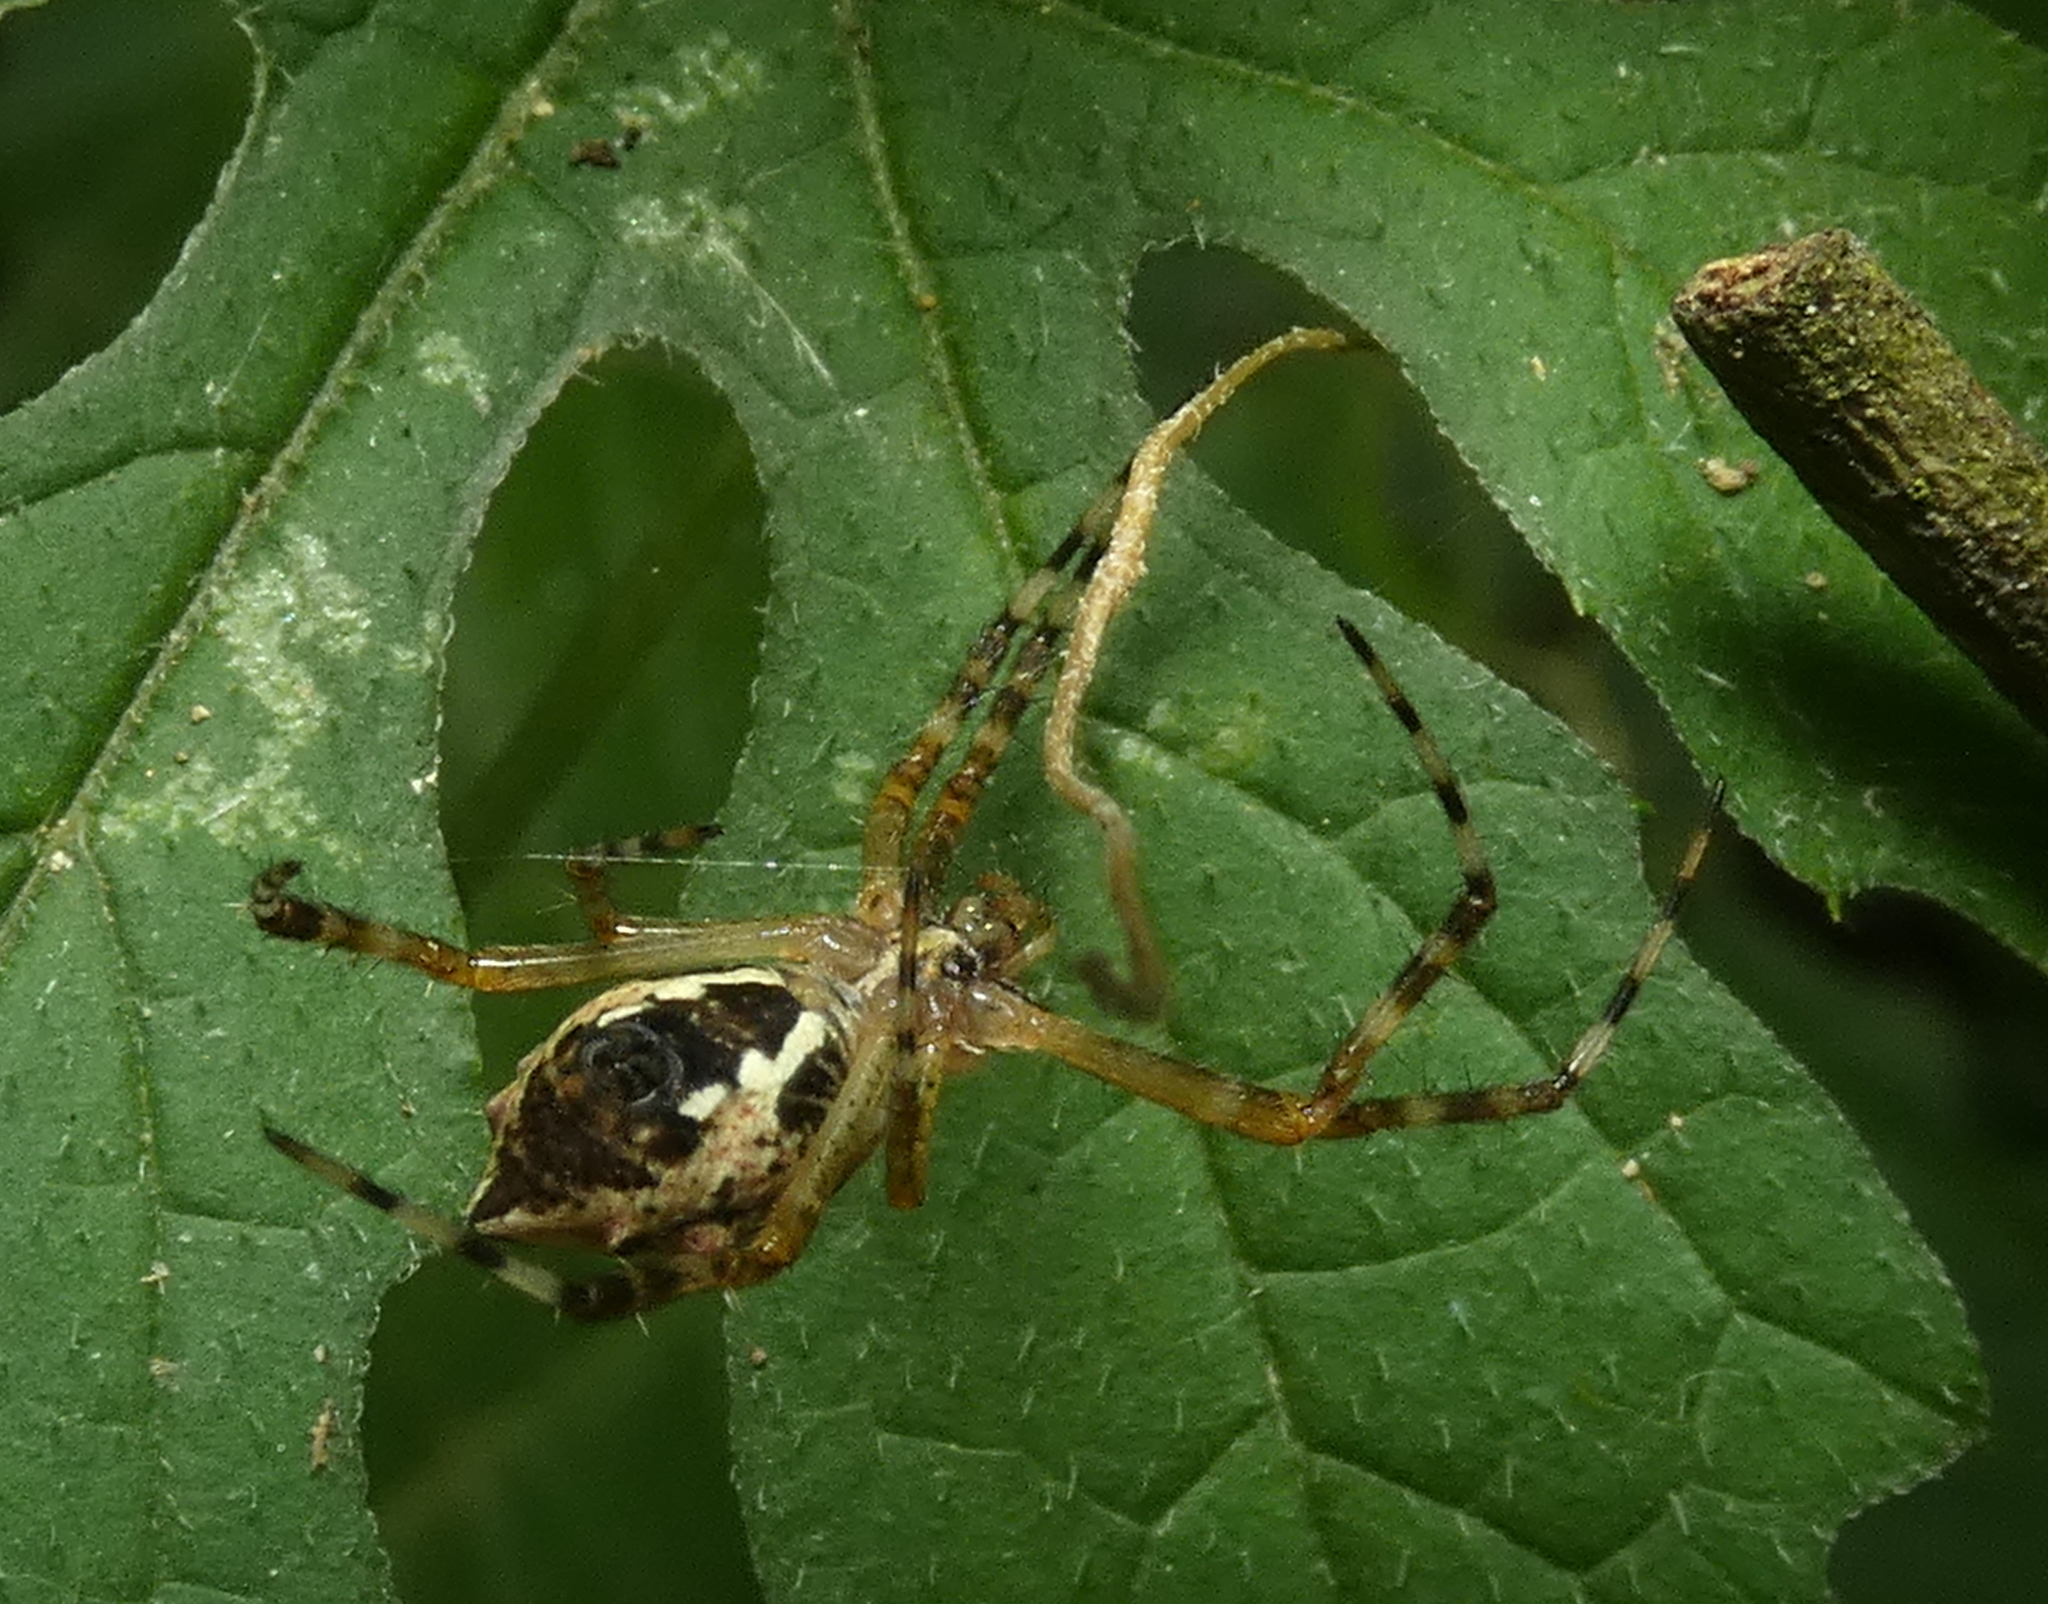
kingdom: Animalia
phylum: Arthropoda
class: Arachnida
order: Araneae
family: Araneidae
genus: Argiope
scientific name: Argiope argentata
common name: Orb weavers
